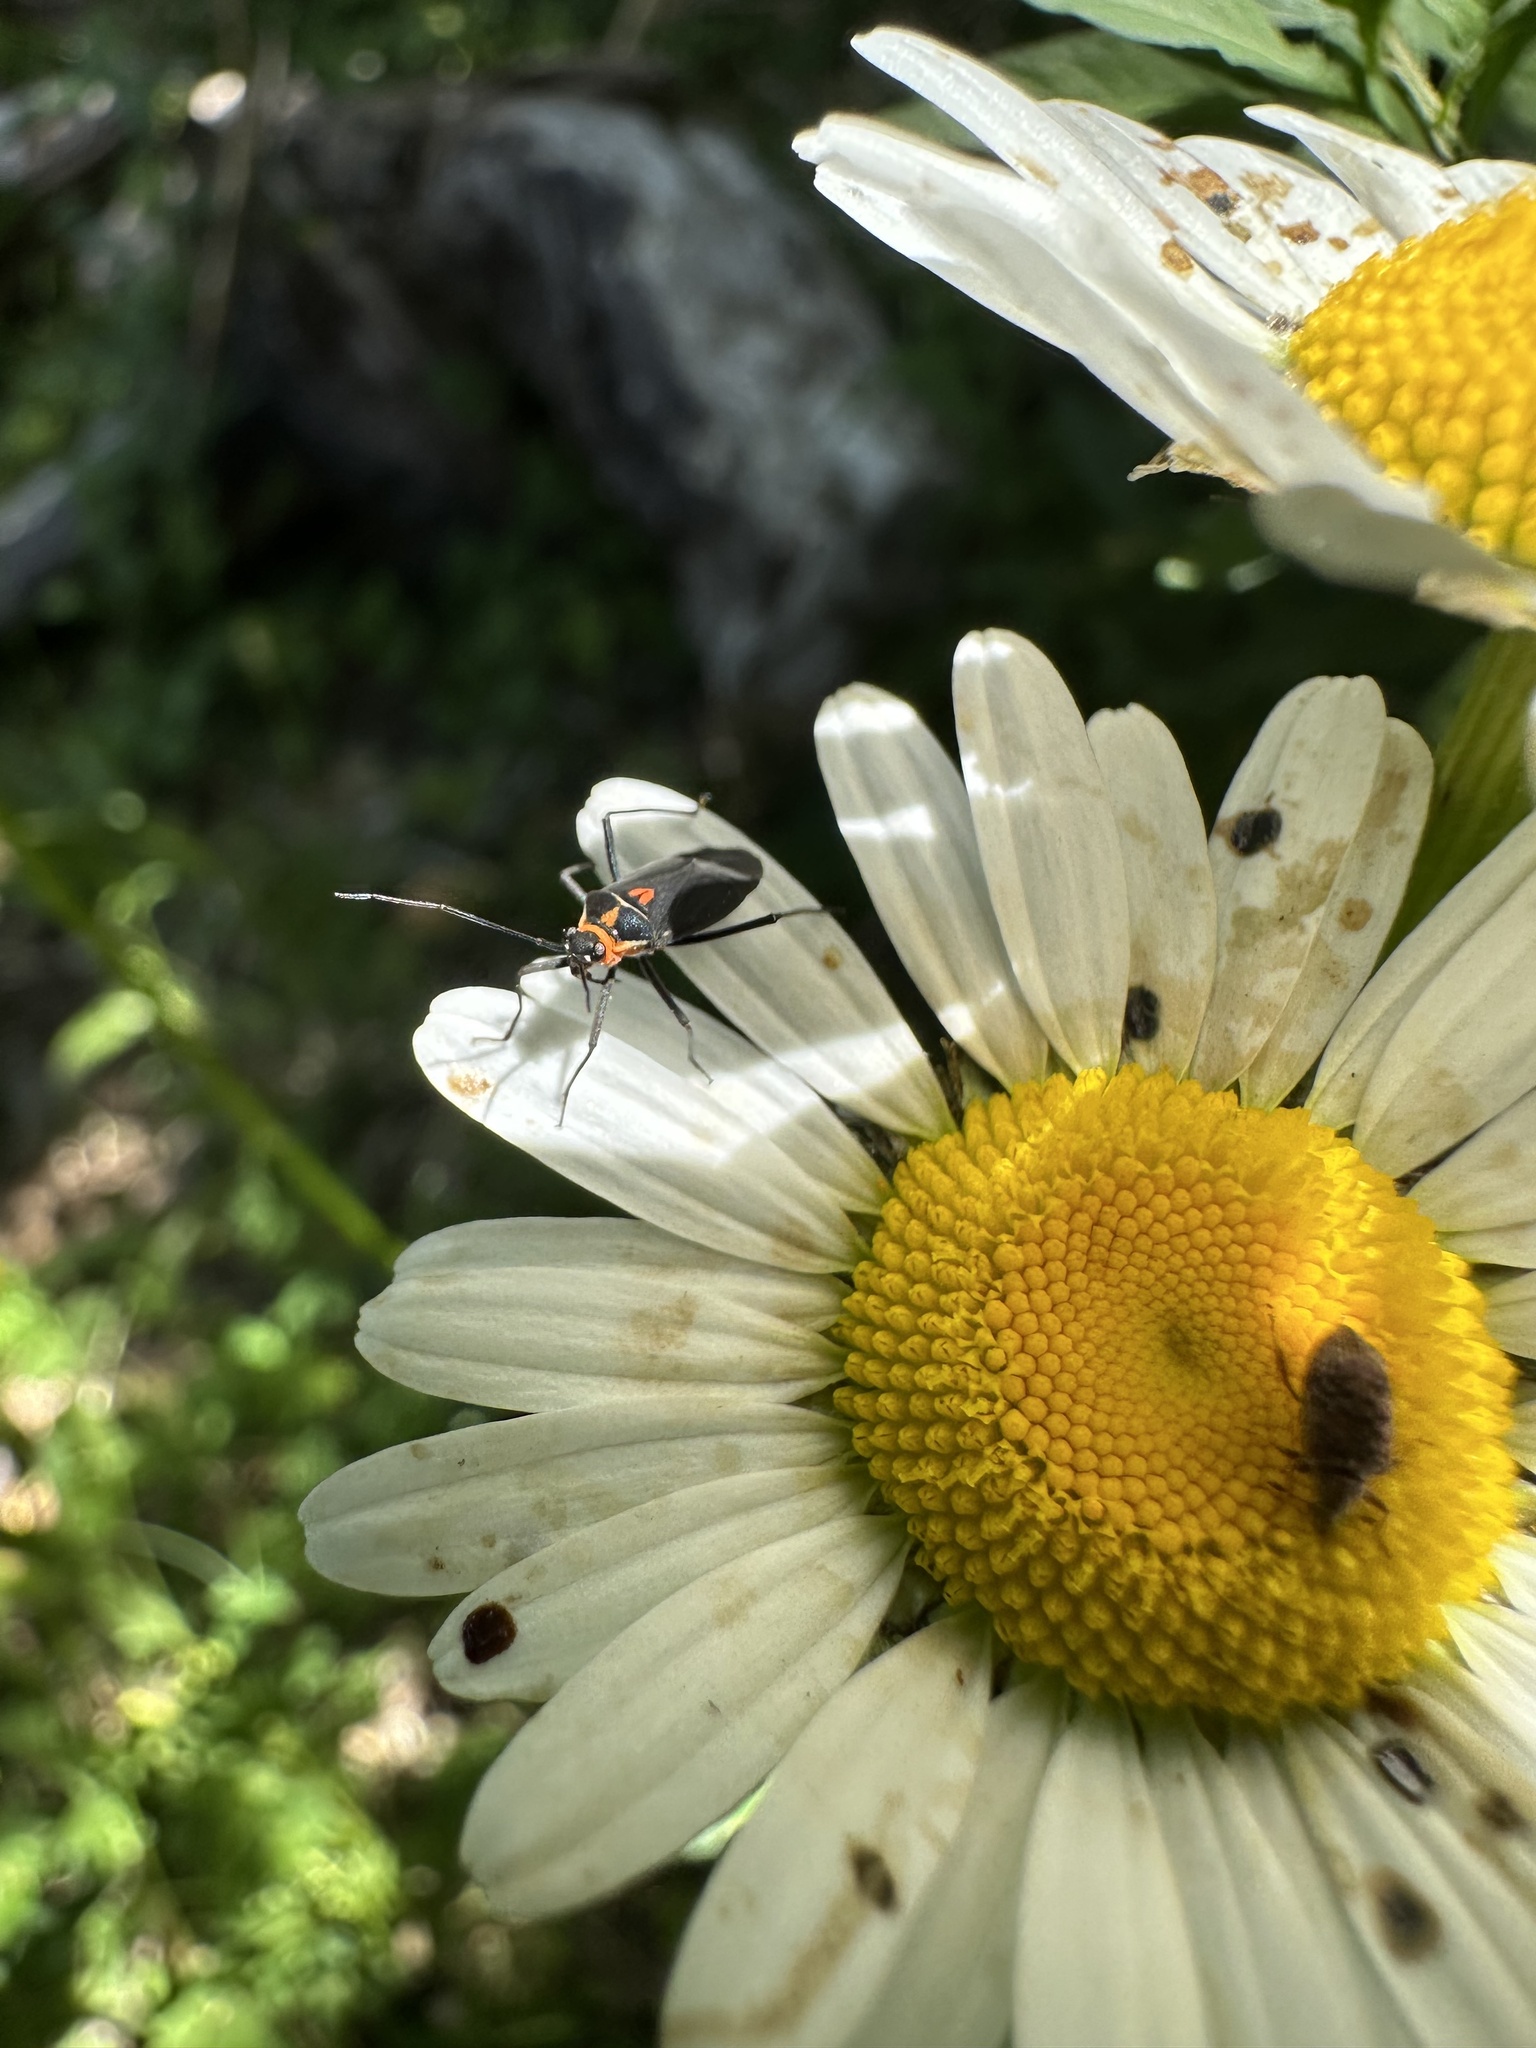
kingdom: Animalia
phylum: Arthropoda
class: Insecta
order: Hemiptera
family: Miridae
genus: Eurylomata
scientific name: Eurylomata picturata
